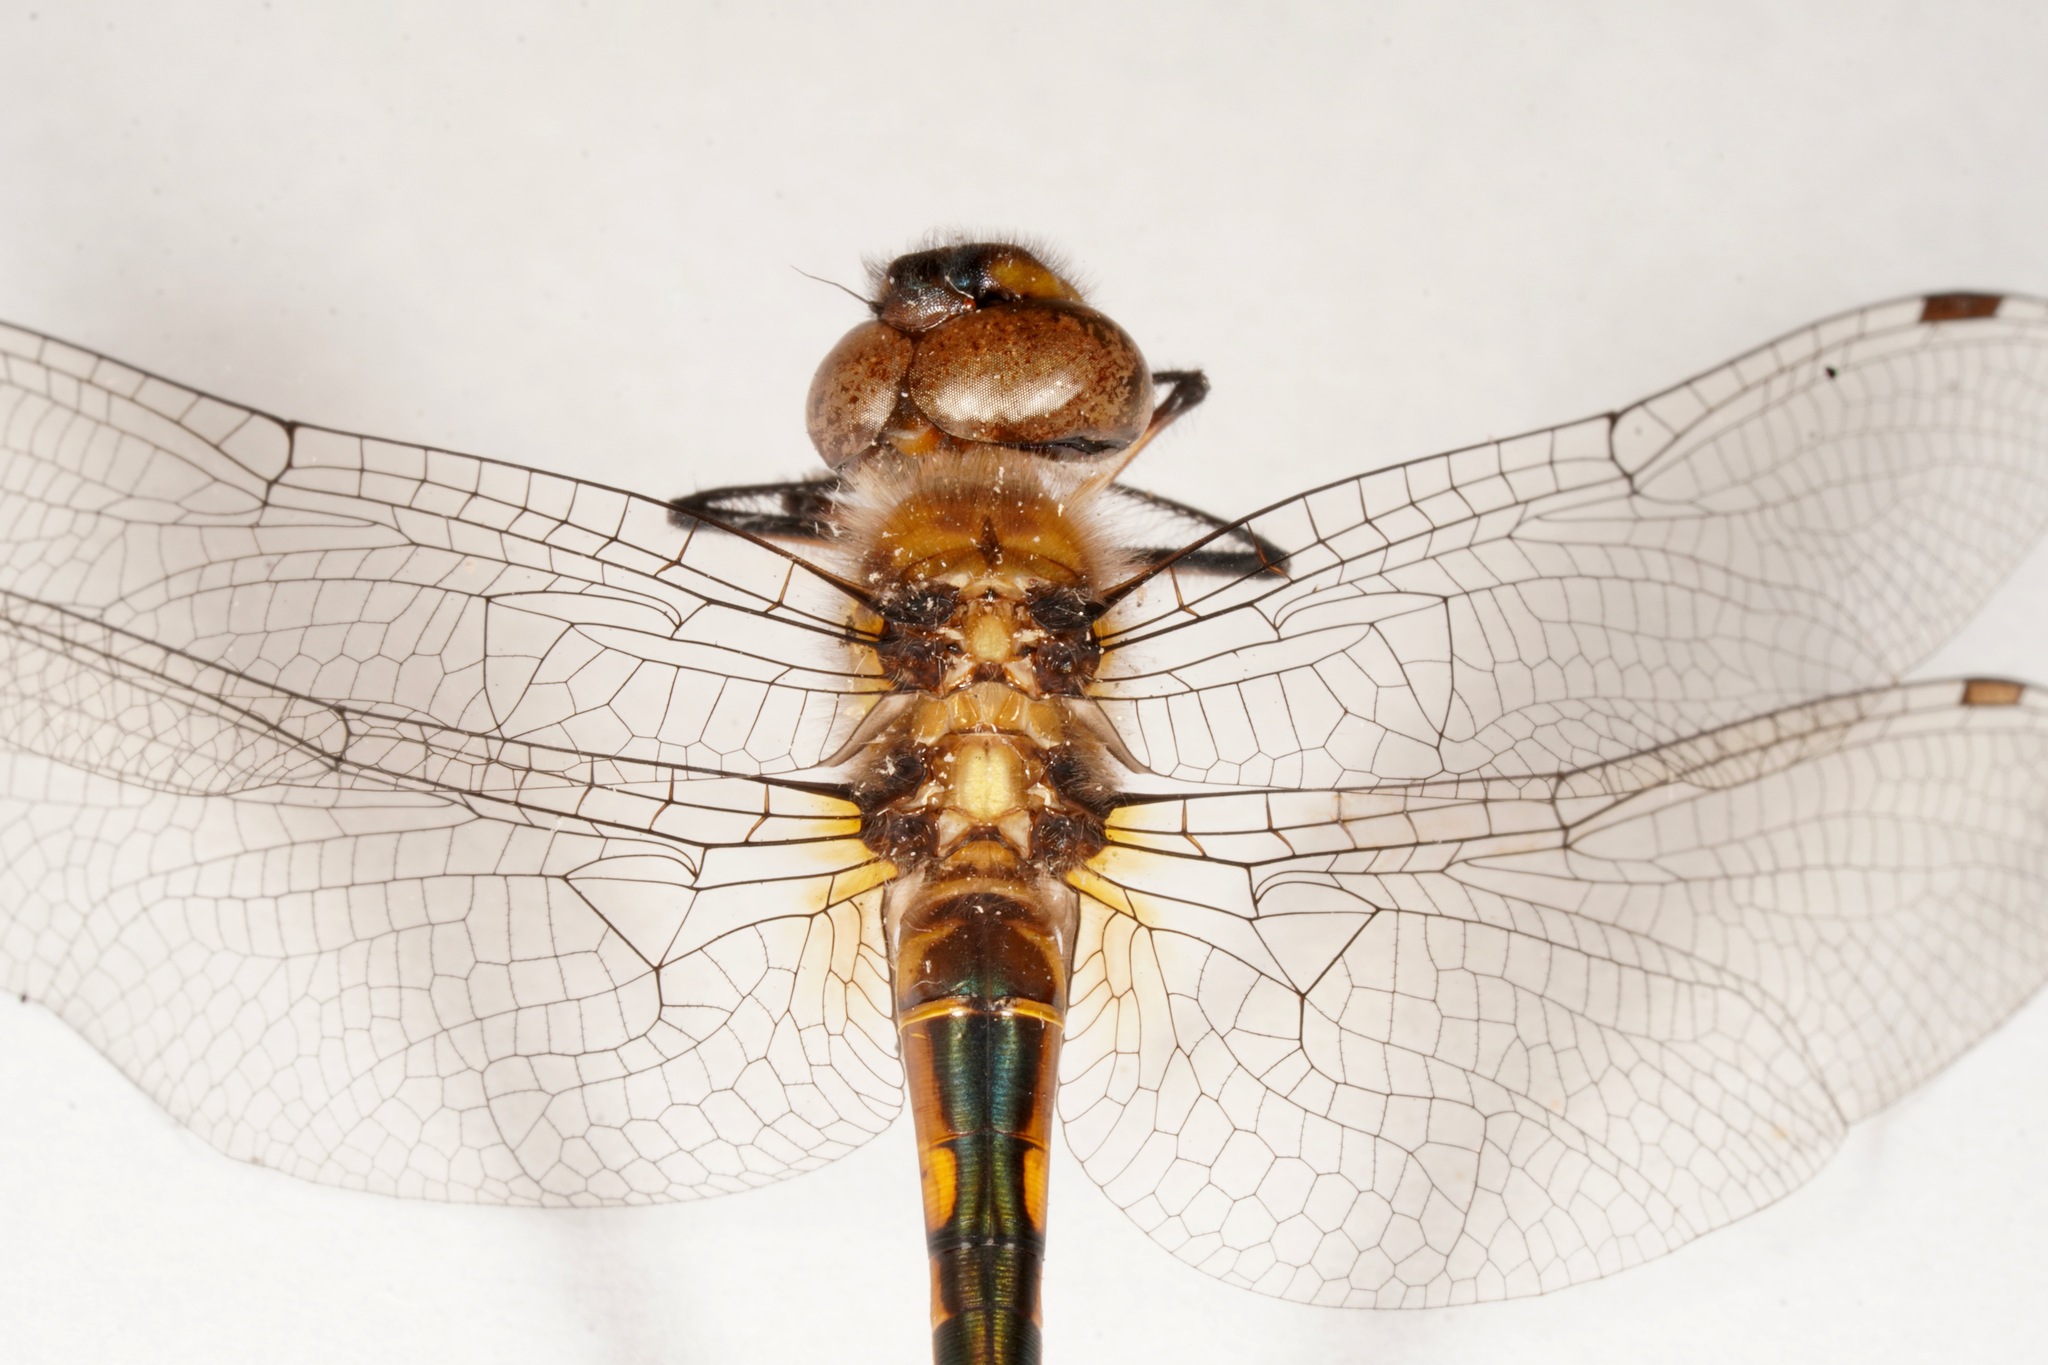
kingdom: Animalia
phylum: Arthropoda
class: Insecta
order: Odonata
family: Corduliidae
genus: Hemicordulia
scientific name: Hemicordulia armstrongi
